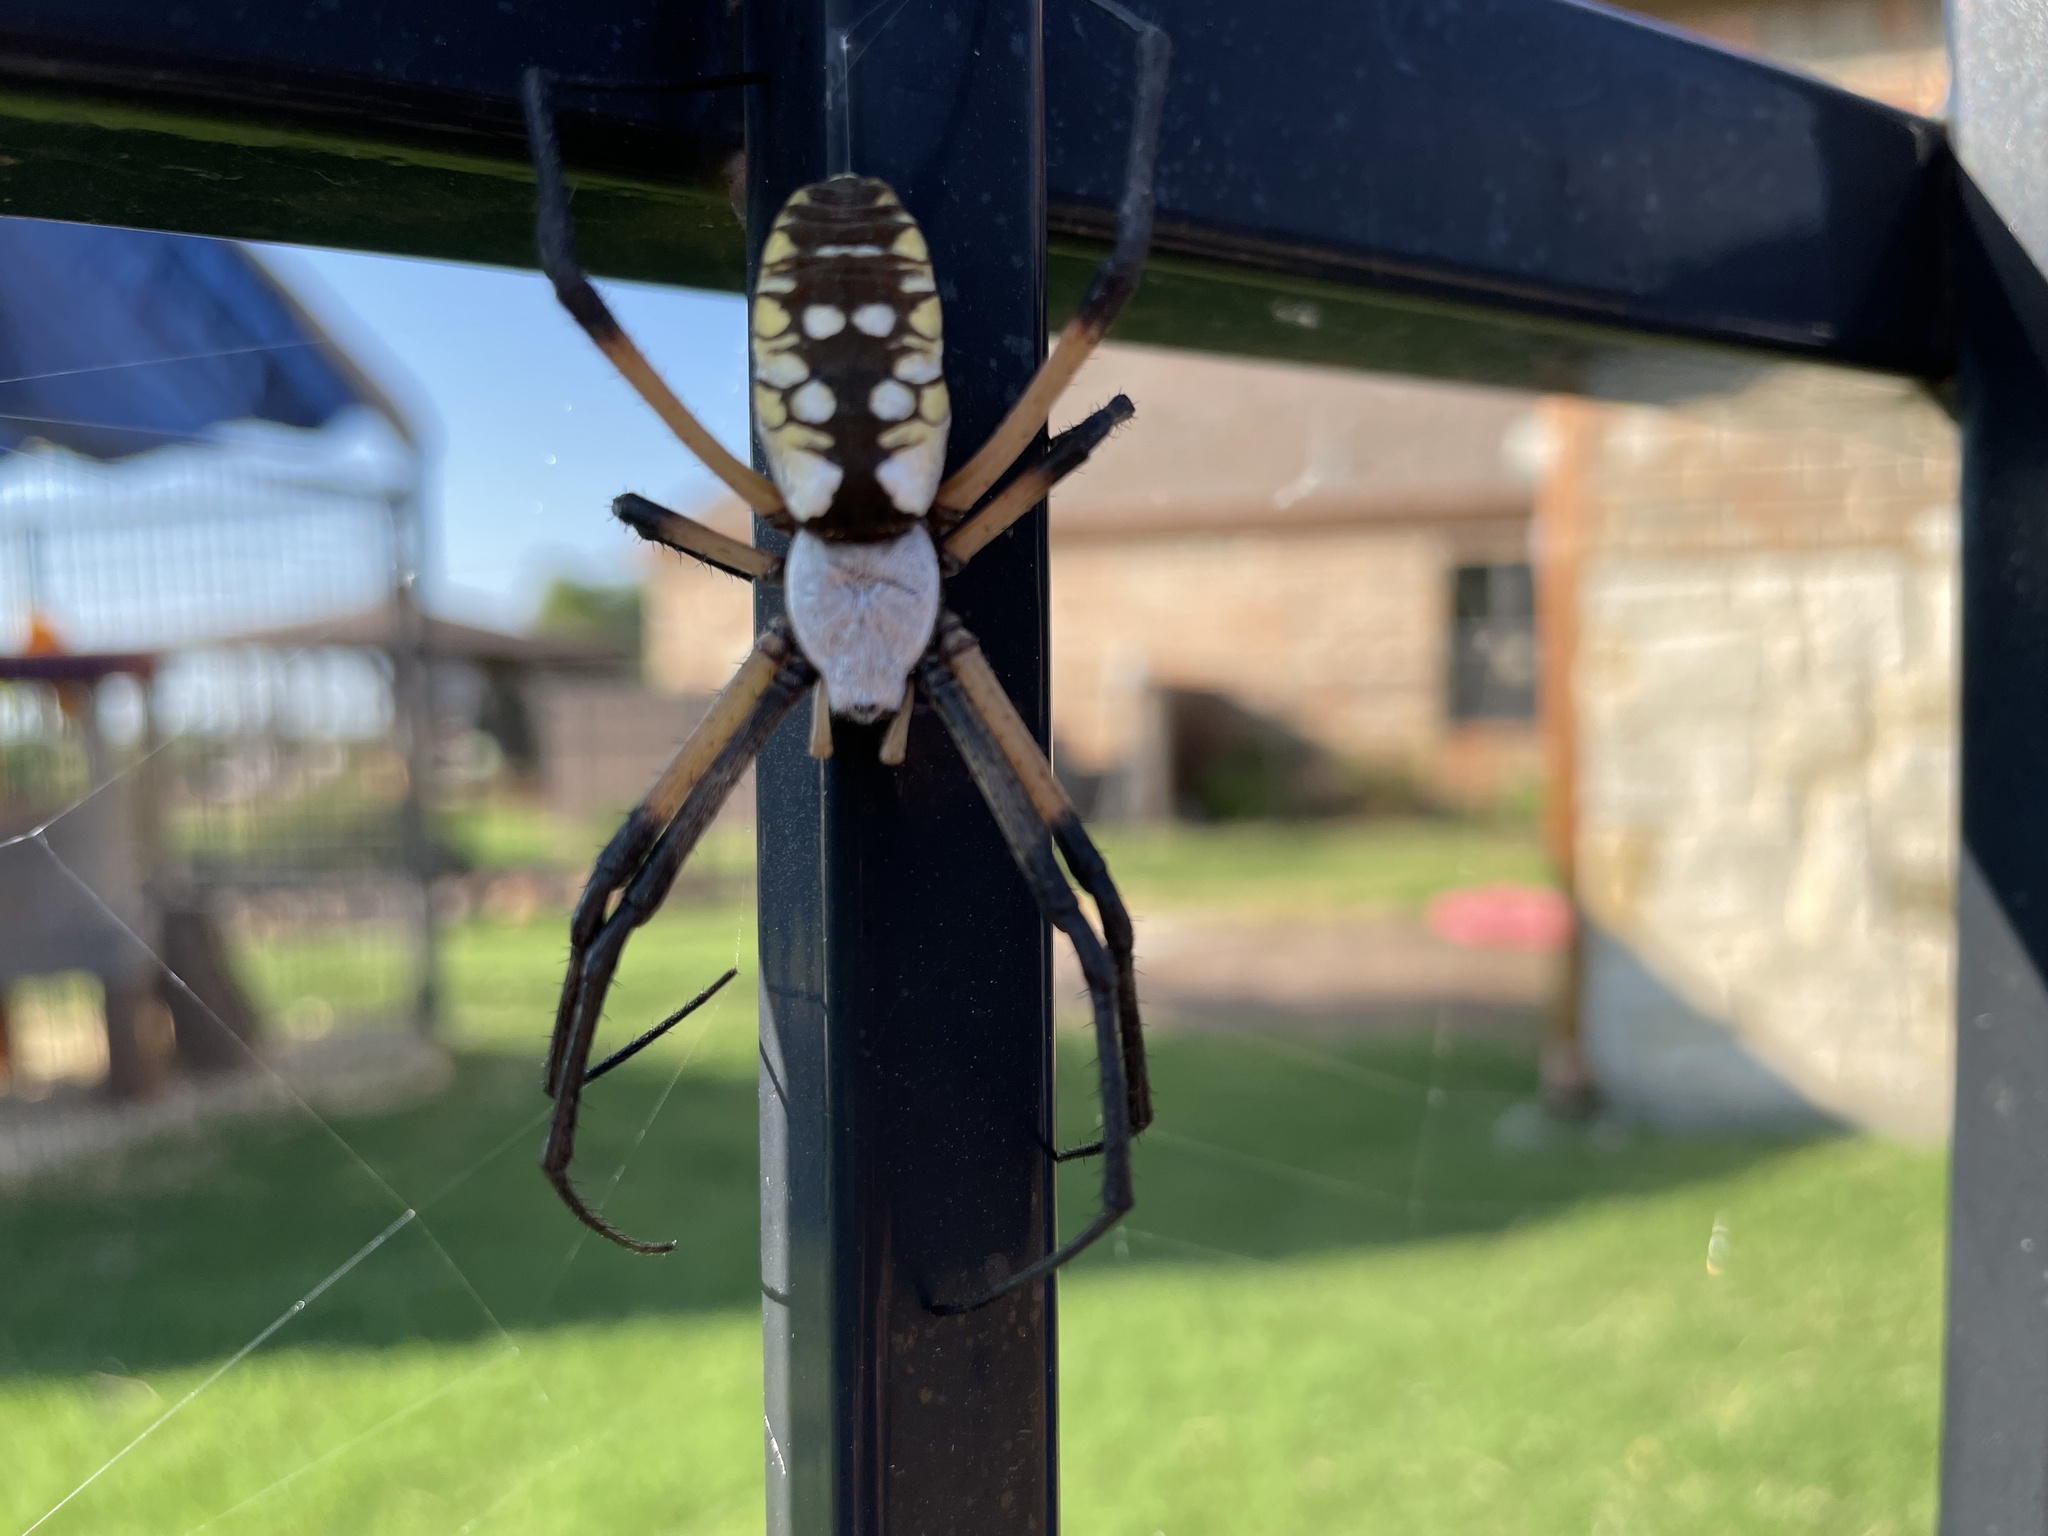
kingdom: Animalia
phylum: Arthropoda
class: Arachnida
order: Araneae
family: Araneidae
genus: Argiope
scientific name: Argiope aurantia
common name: Orb weavers
